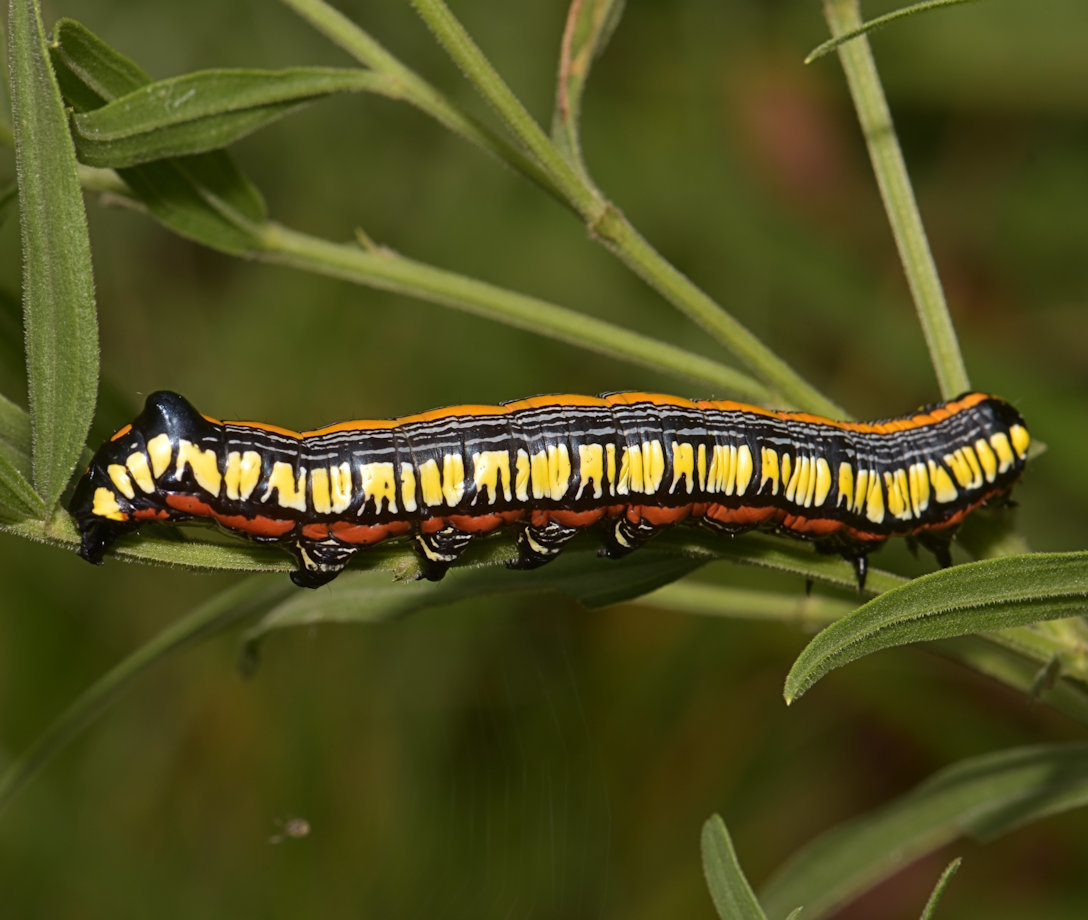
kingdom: Animalia
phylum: Arthropoda
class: Insecta
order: Lepidoptera
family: Noctuidae
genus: Cucullia
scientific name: Cucullia convexipennis
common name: Brown-hooded owlet
